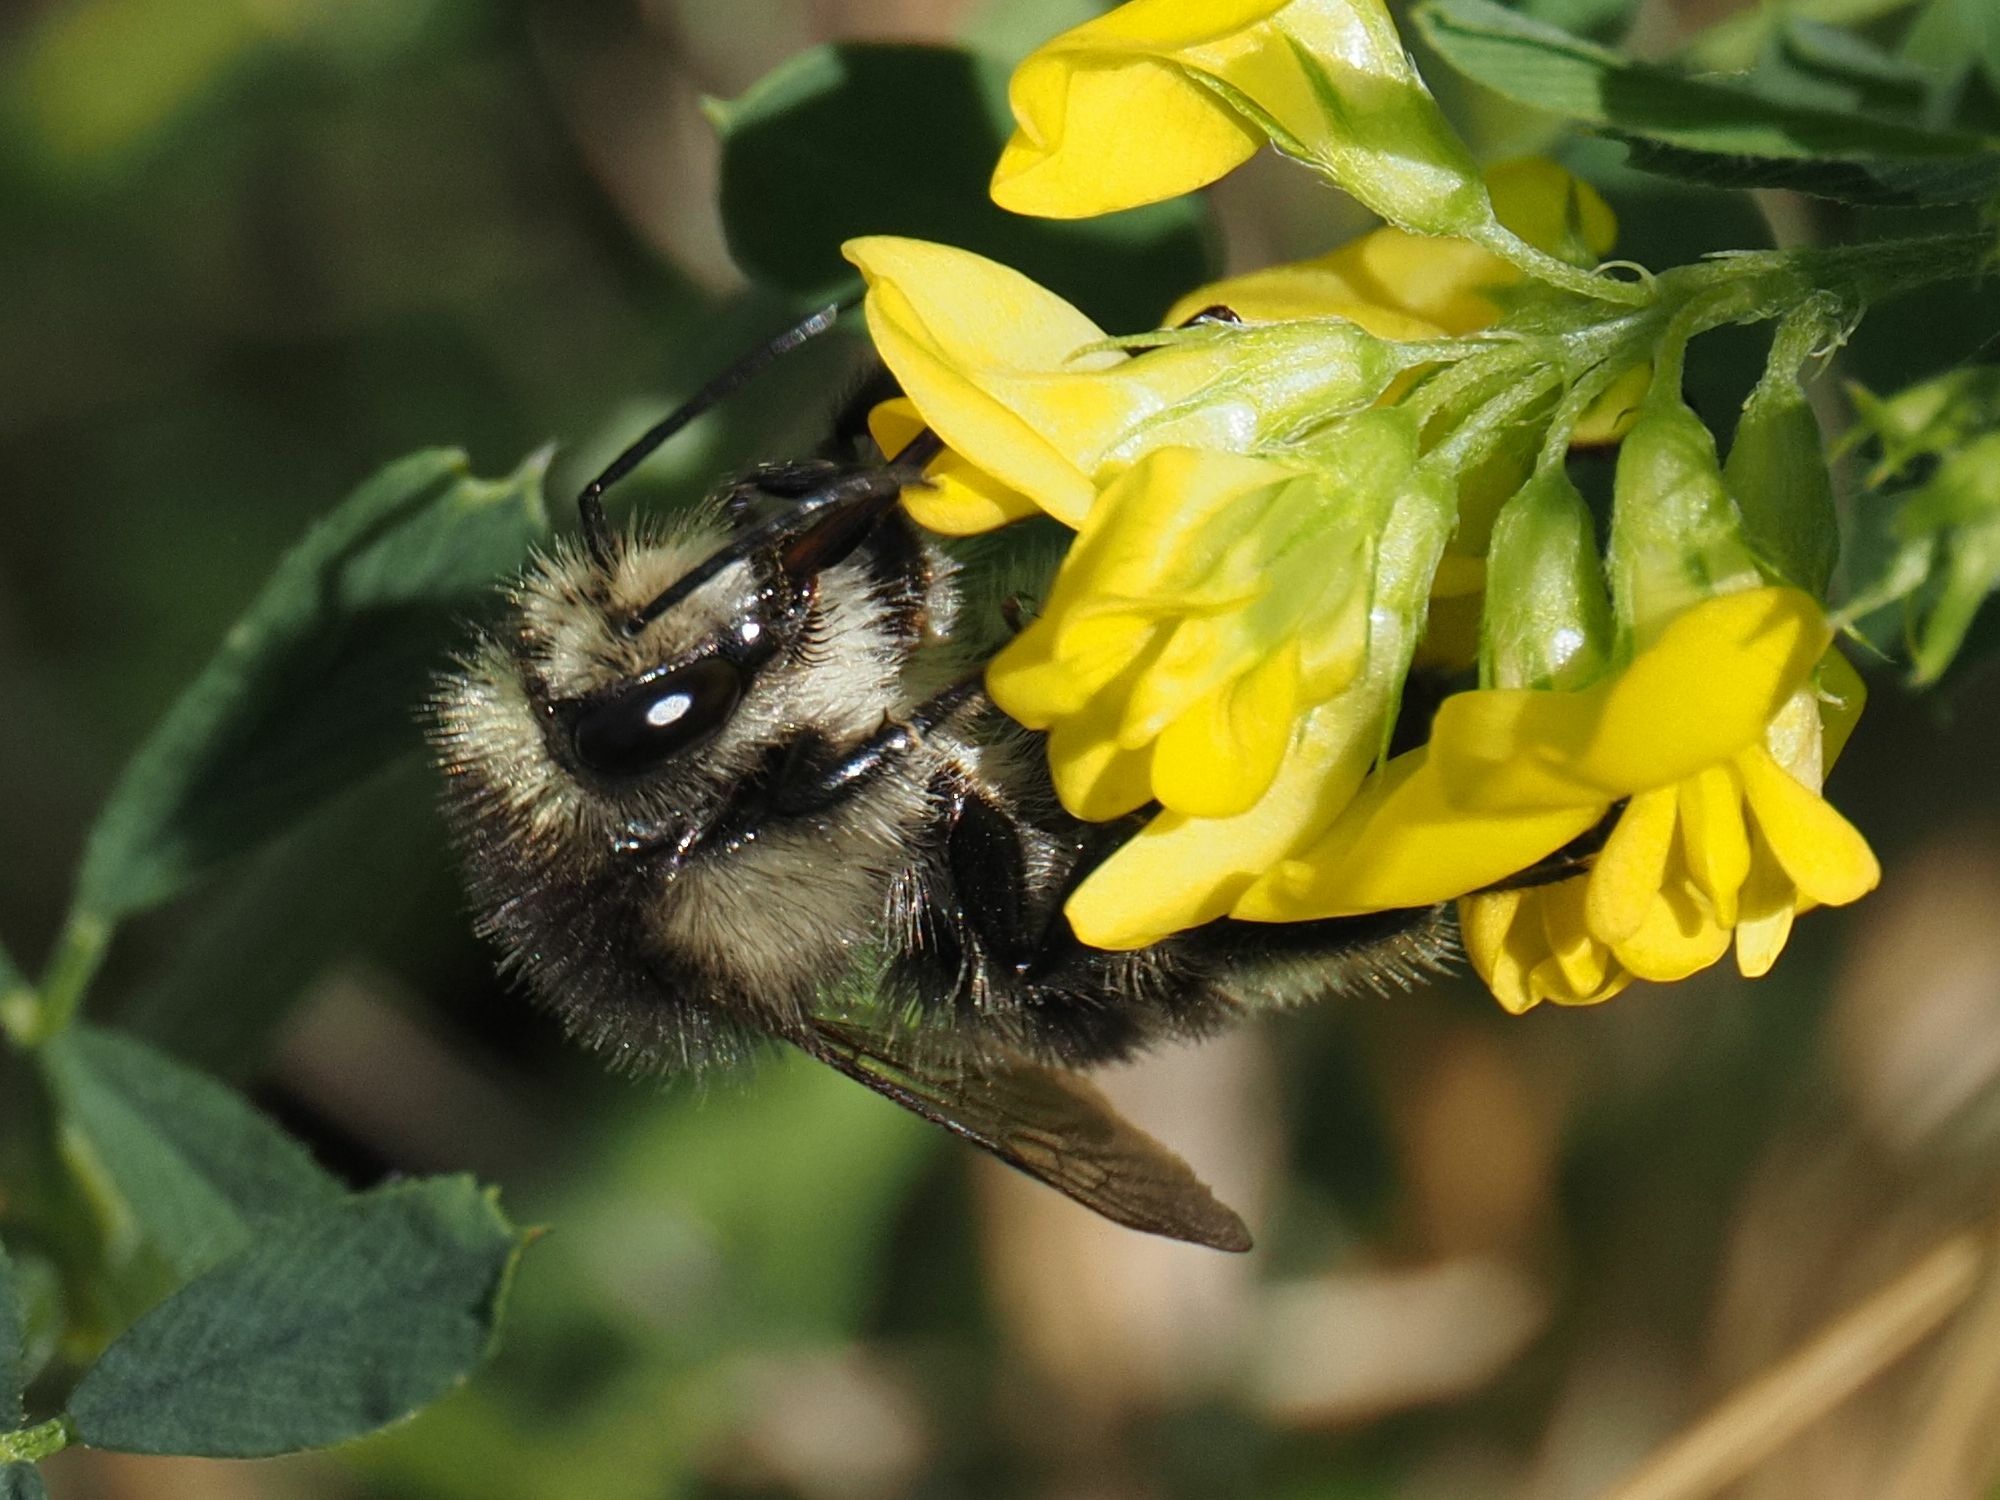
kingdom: Animalia
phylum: Arthropoda
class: Insecta
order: Hymenoptera
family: Apidae
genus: Bombus
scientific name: Bombus humilis
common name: Brown-banded carder-bee
